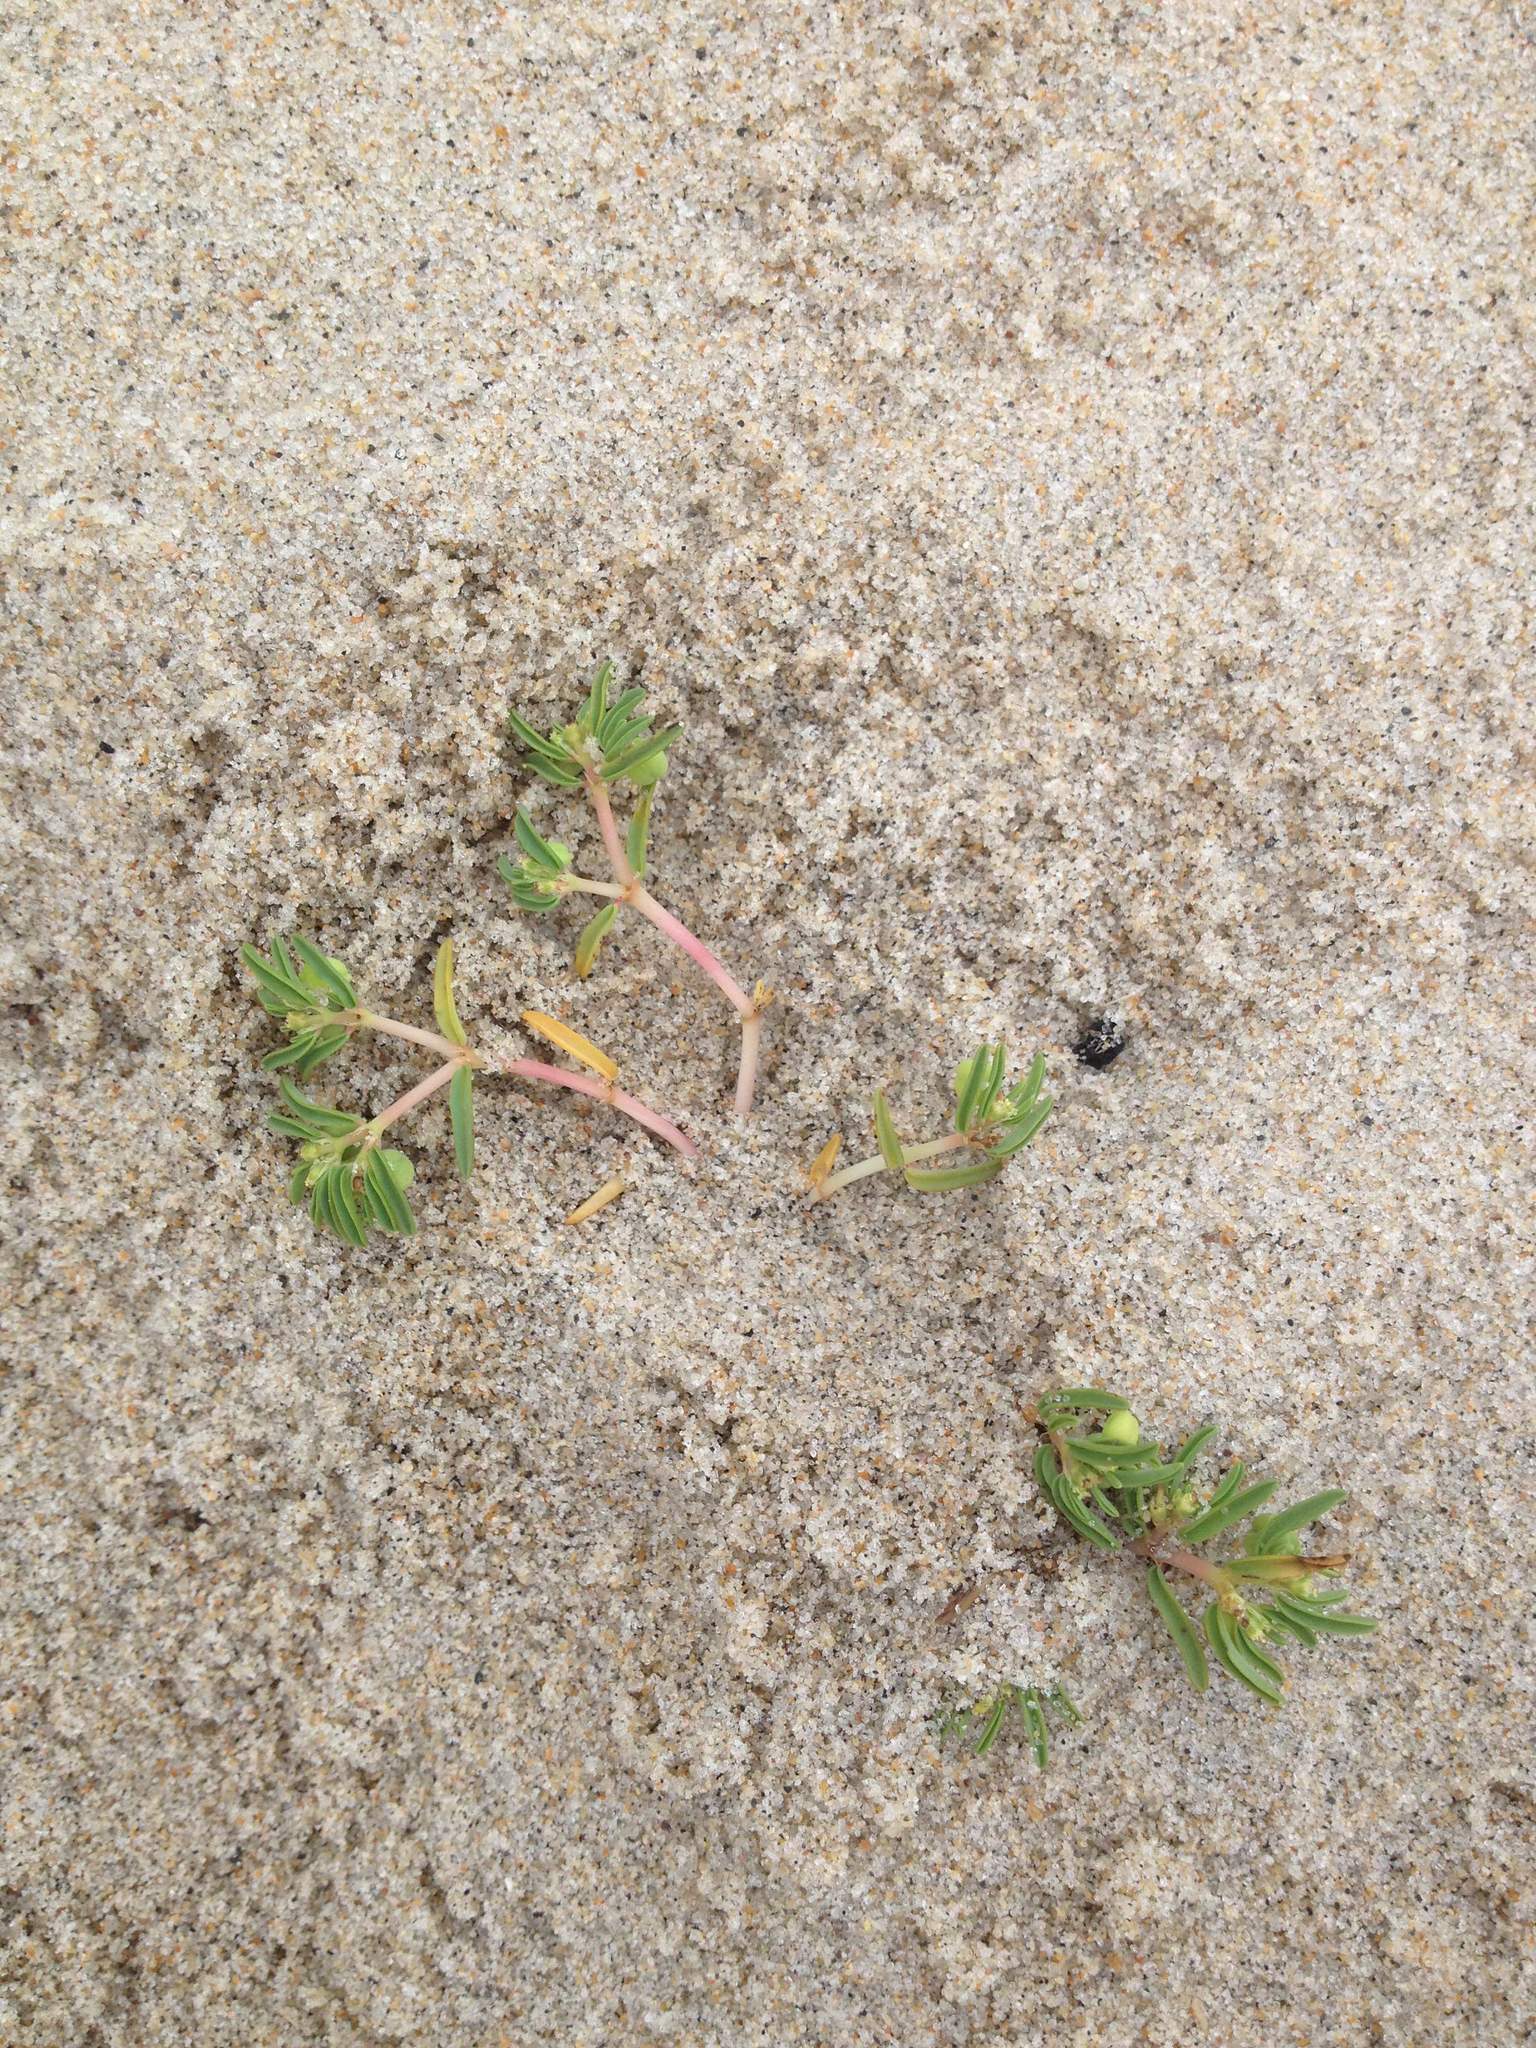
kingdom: Plantae
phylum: Tracheophyta
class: Magnoliopsida
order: Malpighiales
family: Euphorbiaceae
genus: Euphorbia
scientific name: Euphorbia polygonifolia
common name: Knotweed spurge
